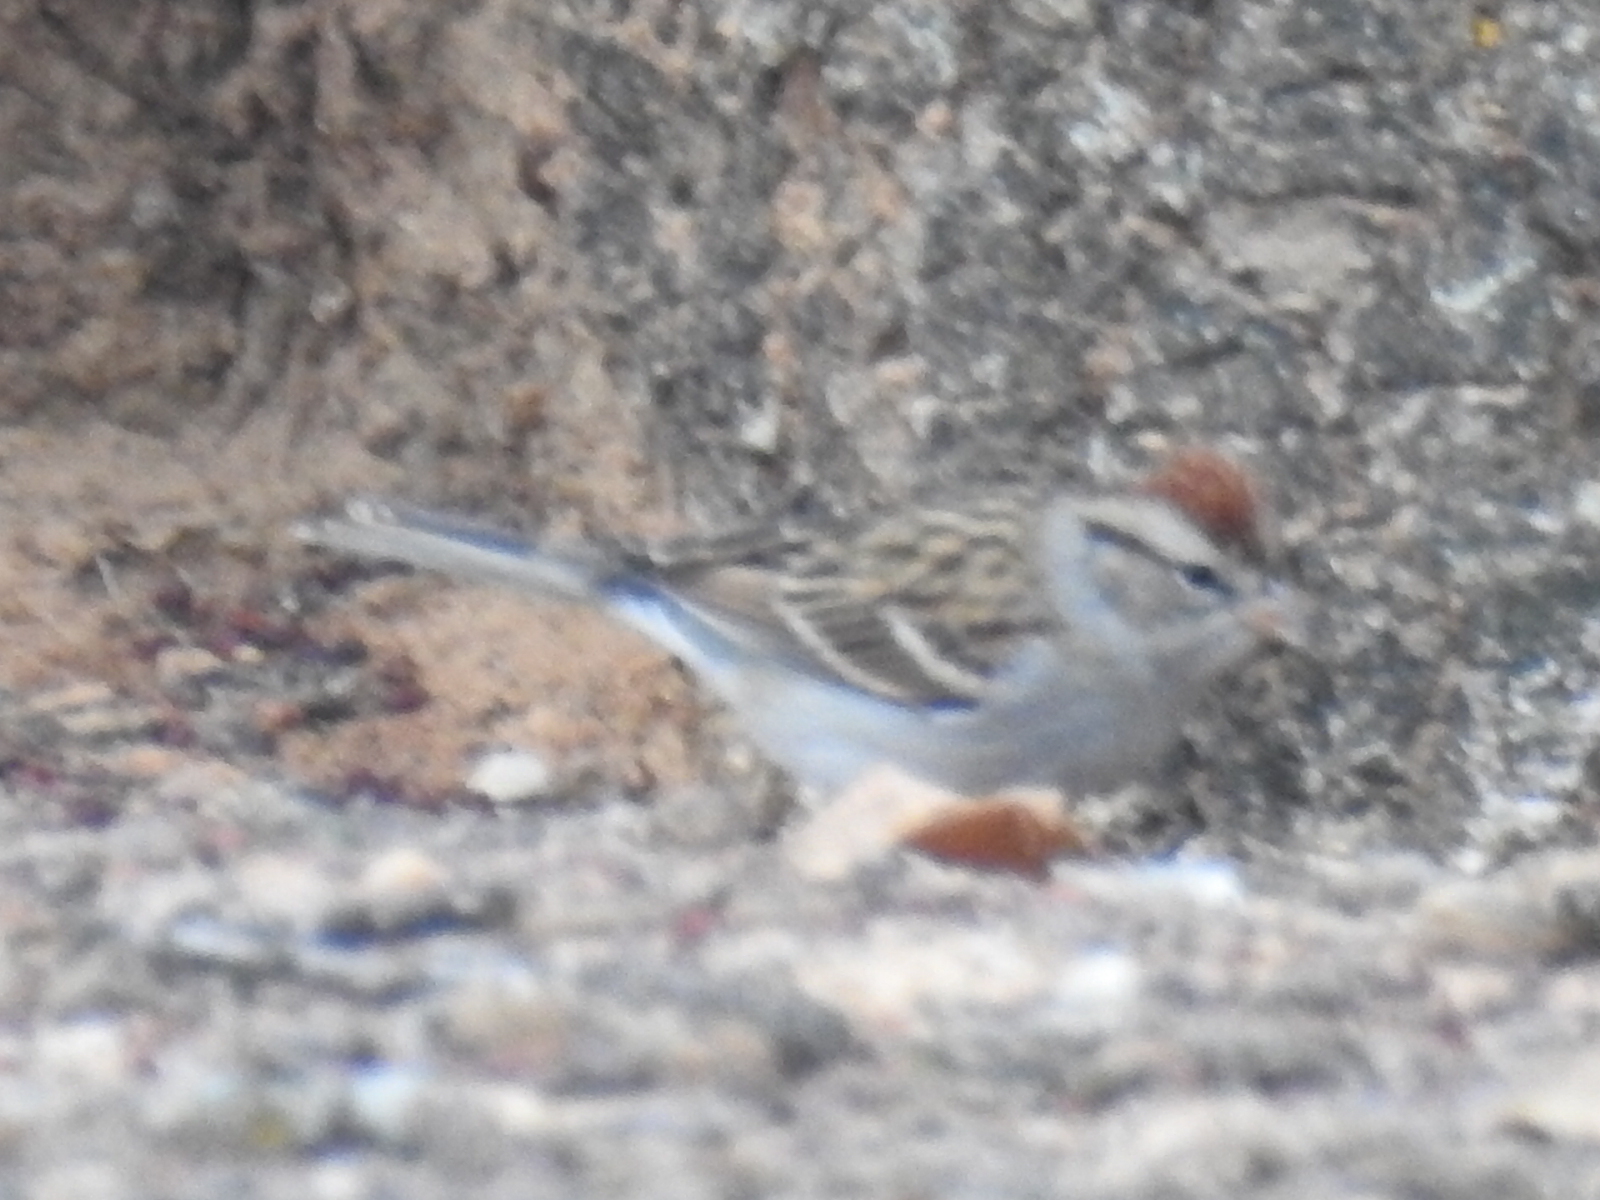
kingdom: Animalia
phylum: Chordata
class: Aves
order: Passeriformes
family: Passerellidae
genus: Spizella
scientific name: Spizella passerina
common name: Chipping sparrow
